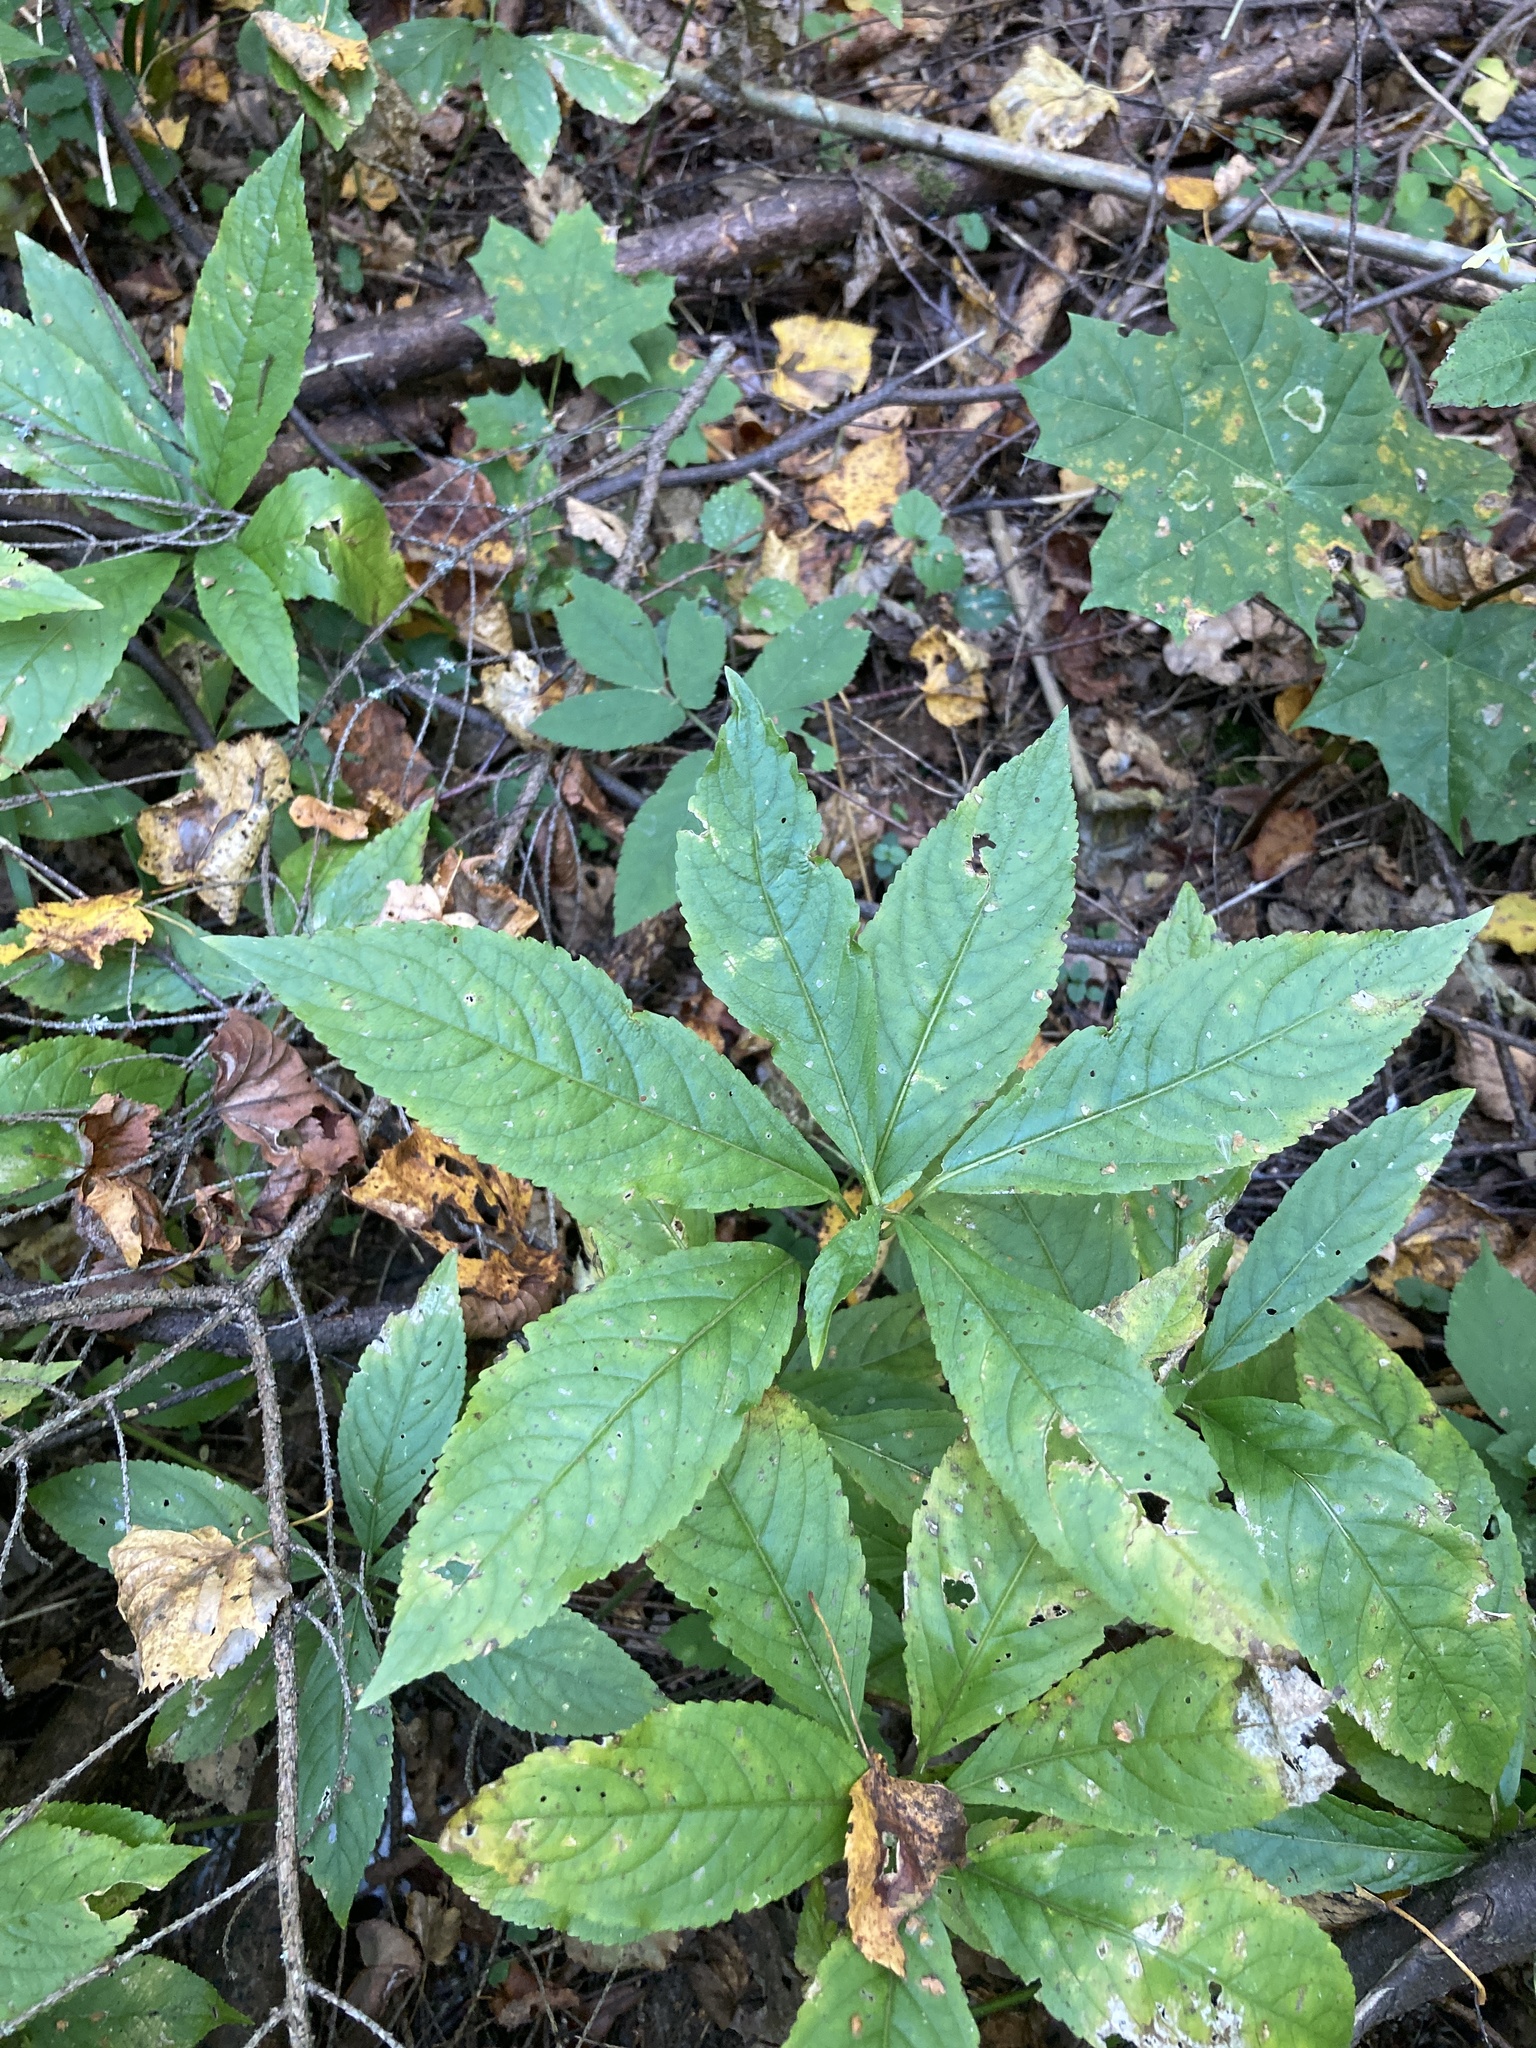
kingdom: Plantae
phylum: Tracheophyta
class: Magnoliopsida
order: Malpighiales
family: Euphorbiaceae
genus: Mercurialis
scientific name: Mercurialis perennis
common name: Dog mercury
